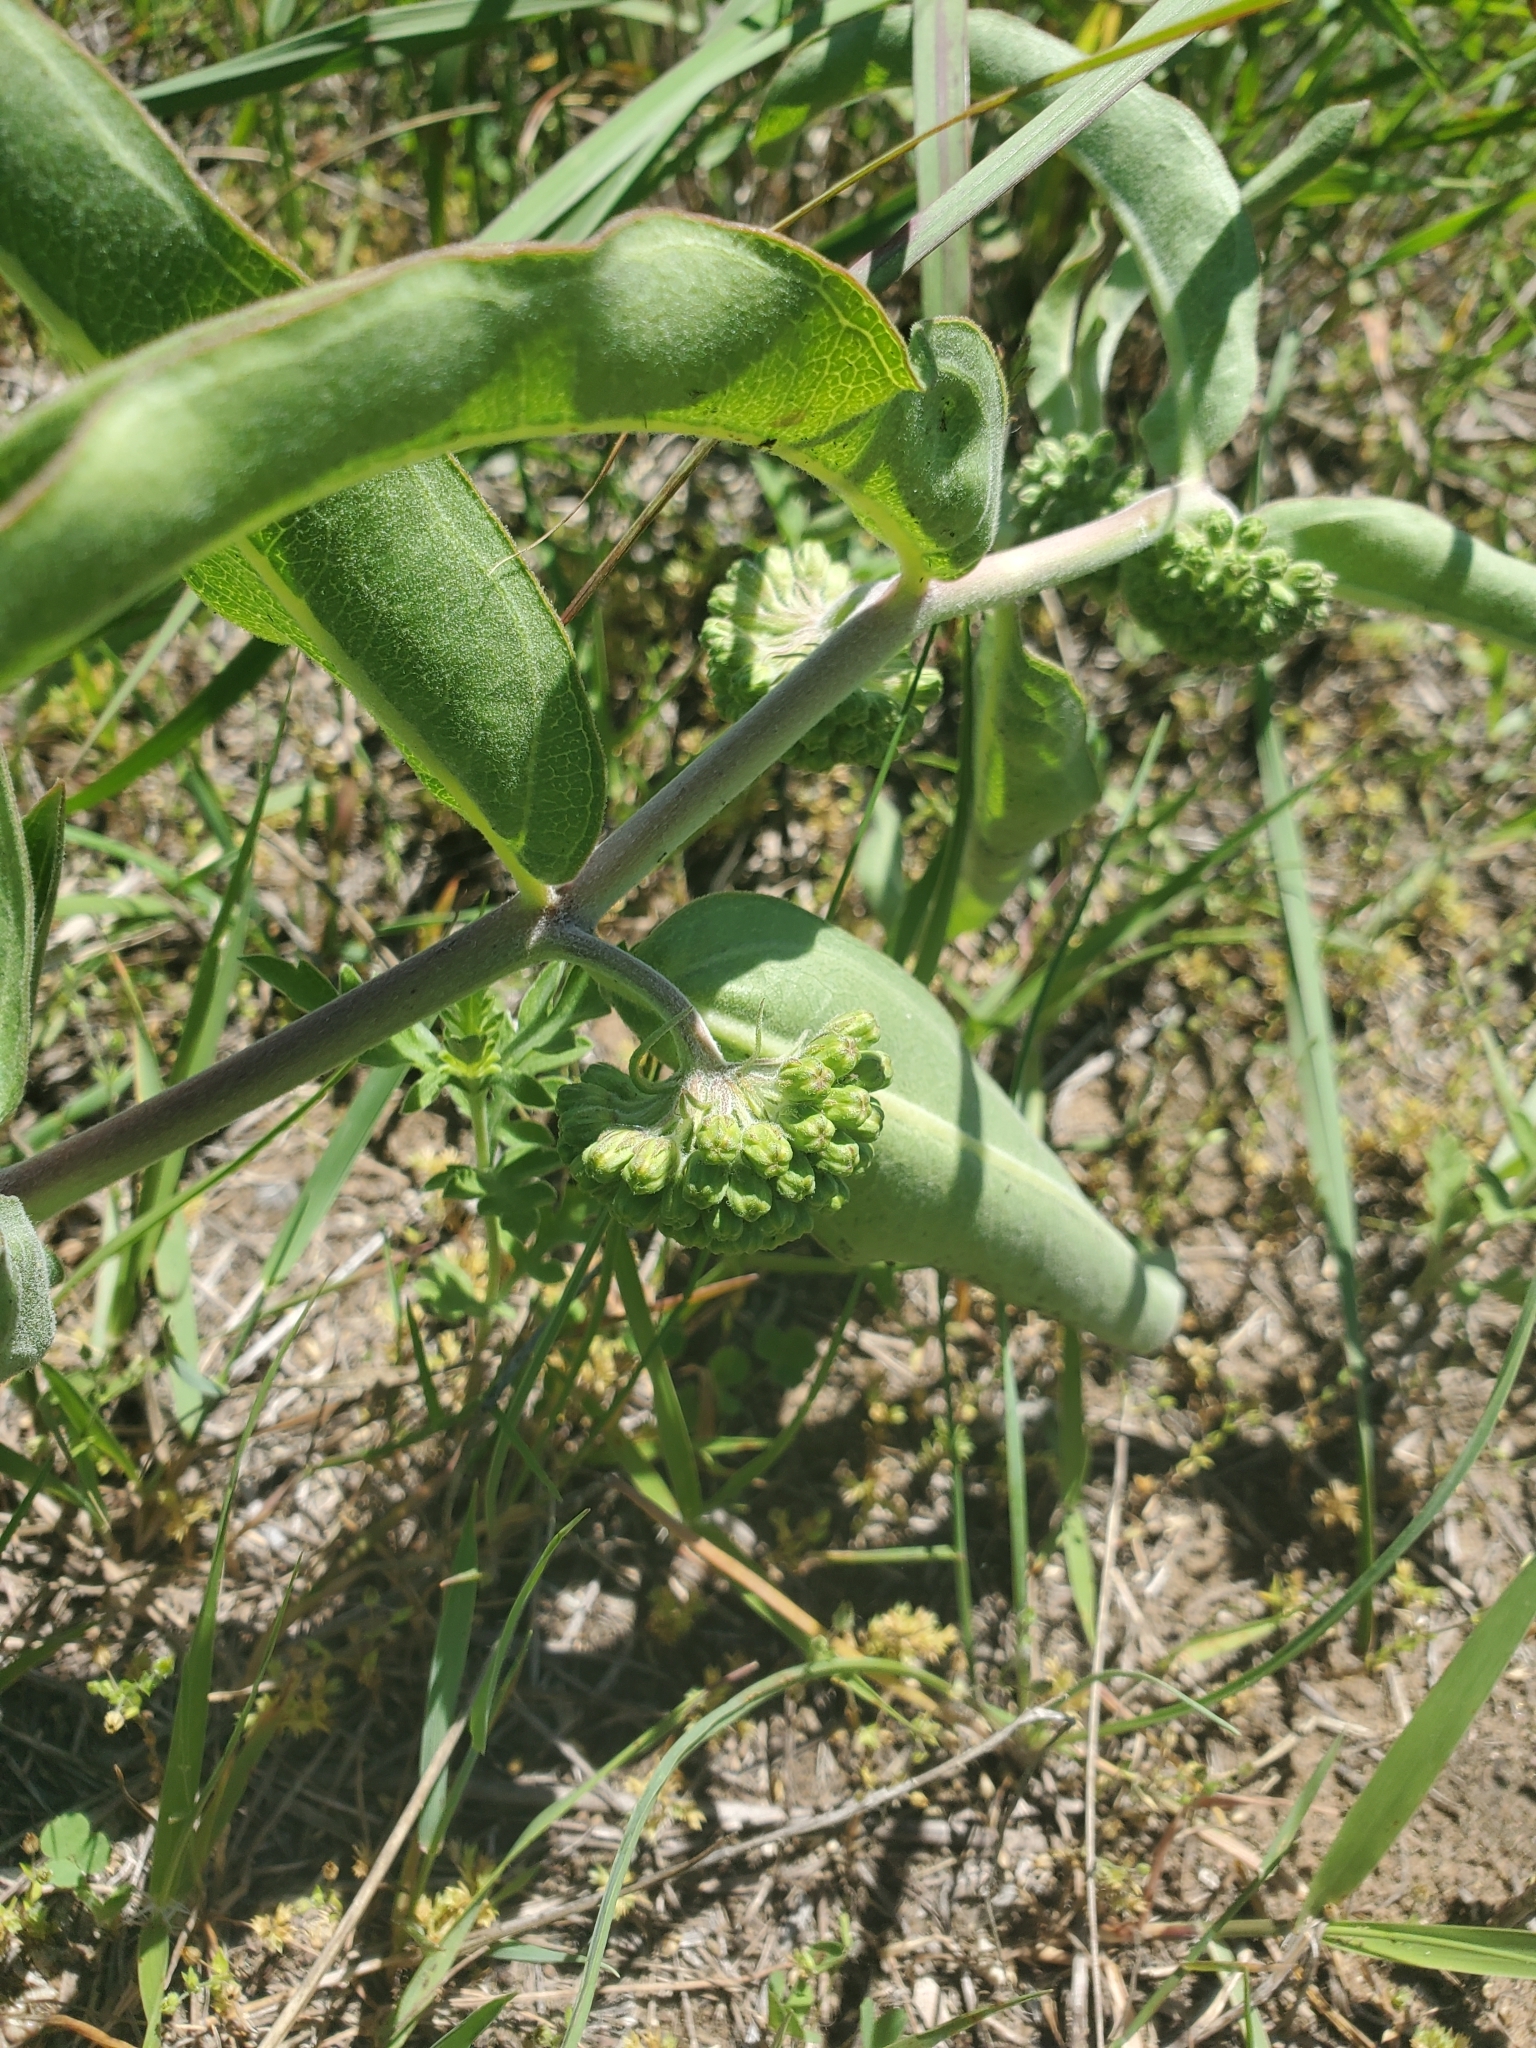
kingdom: Plantae
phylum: Tracheophyta
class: Magnoliopsida
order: Gentianales
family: Apocynaceae
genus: Asclepias
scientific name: Asclepias viridiflora
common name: Green comet milkweed
